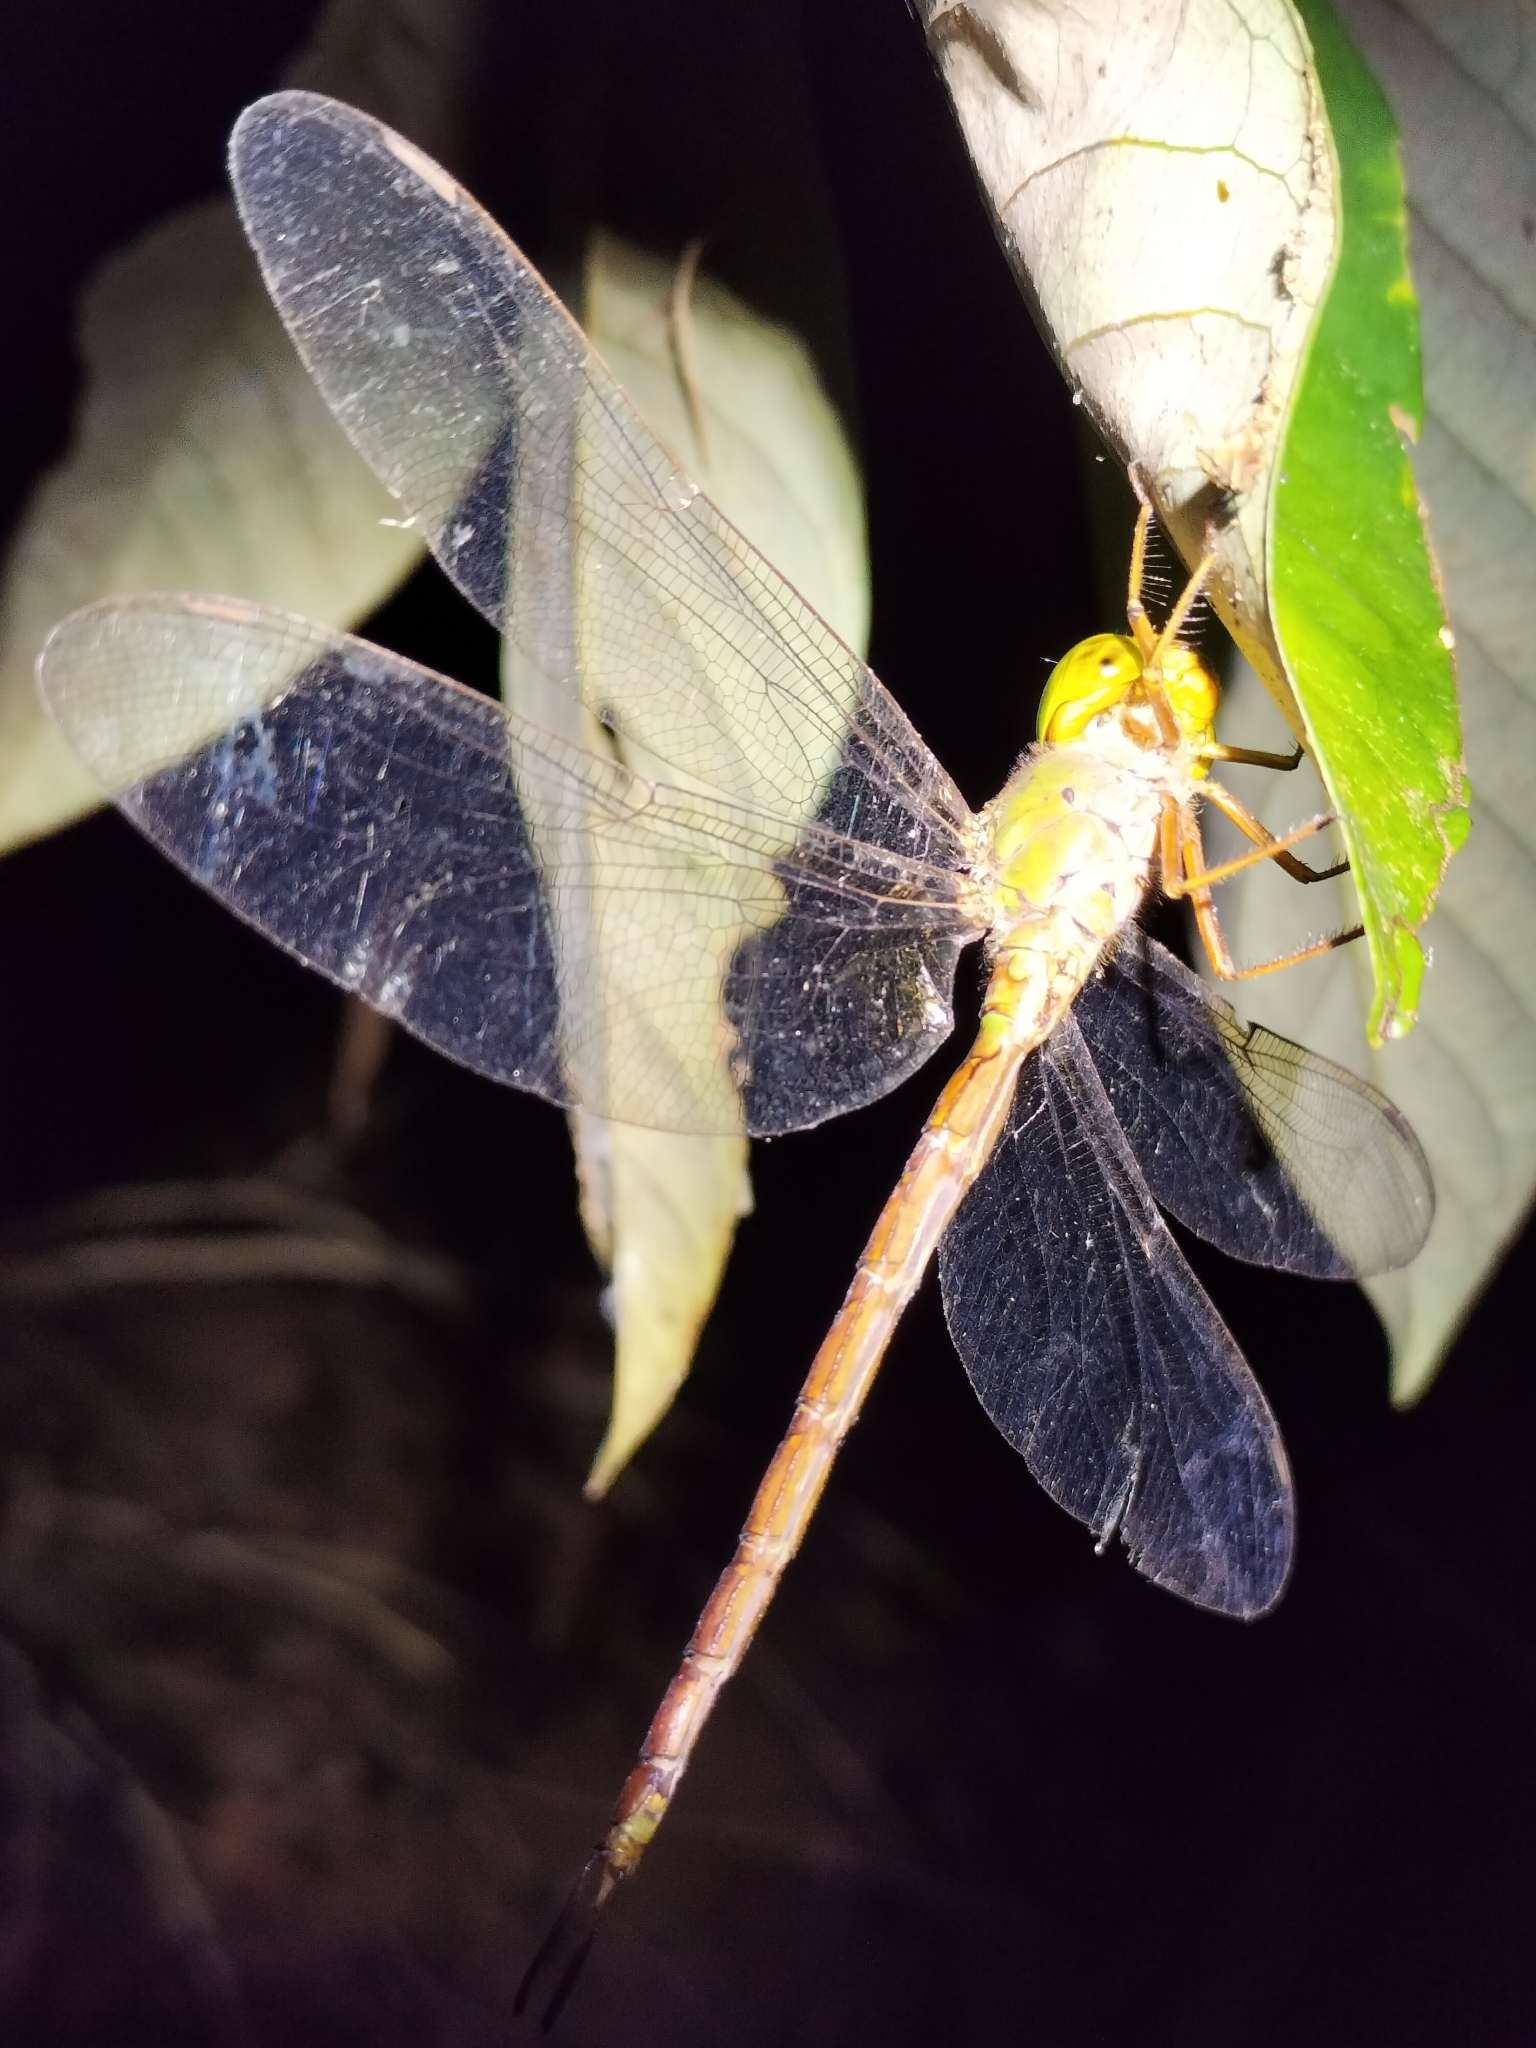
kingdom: Animalia
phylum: Arthropoda
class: Insecta
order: Odonata
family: Aeshnidae
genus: Gynacantha
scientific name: Gynacantha rosenbergi
